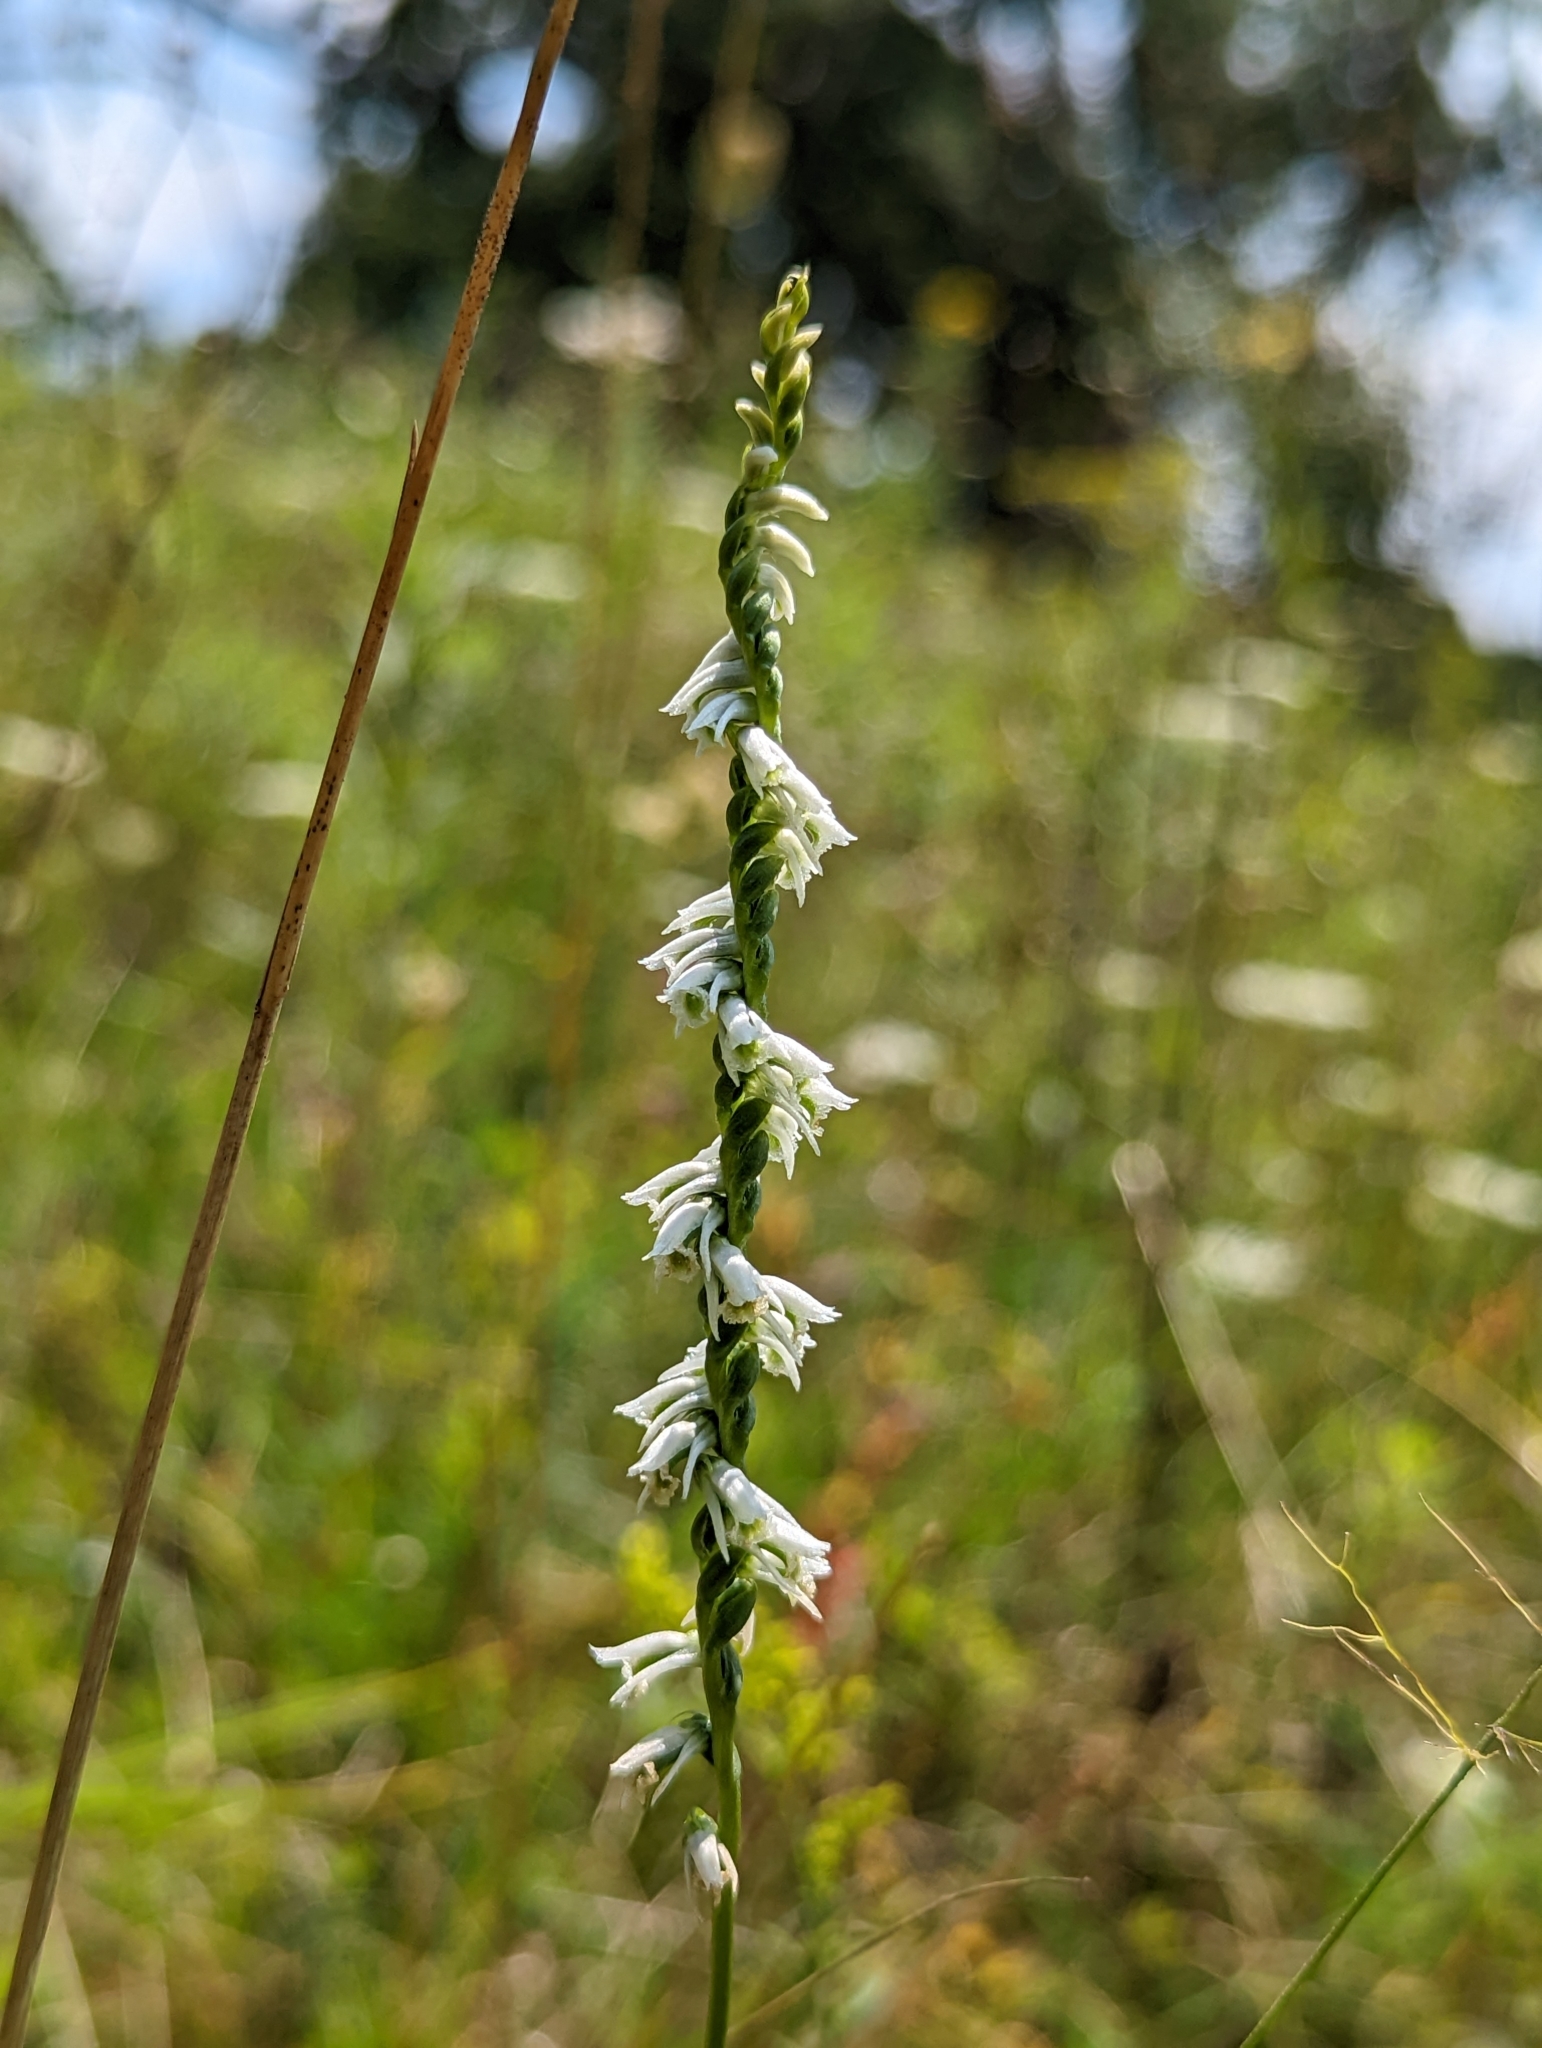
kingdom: Plantae
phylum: Tracheophyta
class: Liliopsida
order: Asparagales
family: Orchidaceae
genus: Spiranthes
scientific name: Spiranthes lacera
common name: Northern slender ladies'-tresses
